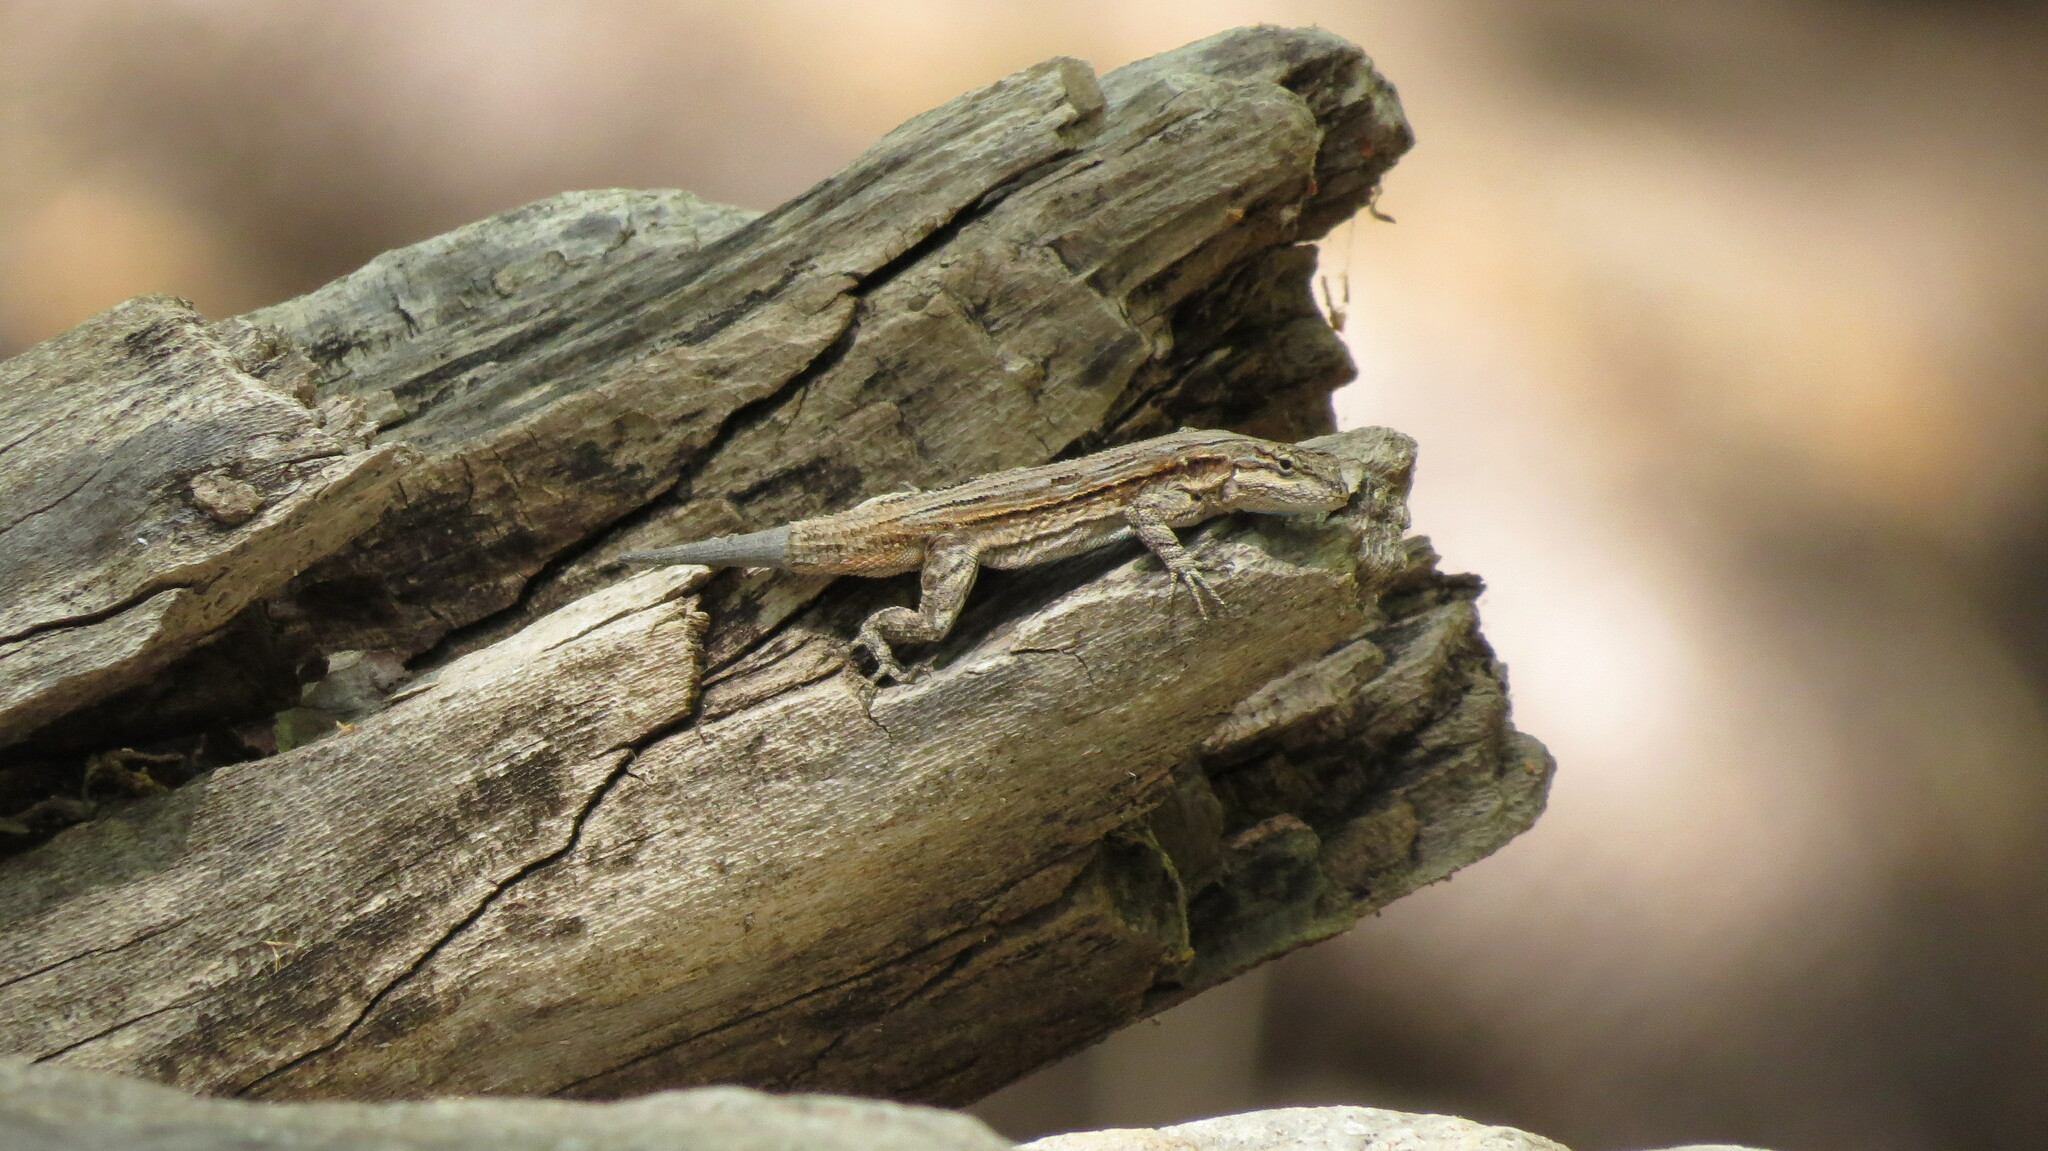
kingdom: Animalia
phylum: Chordata
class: Squamata
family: Phrynosomatidae
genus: Urosaurus
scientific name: Urosaurus ornatus
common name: Ornate tree lizard
